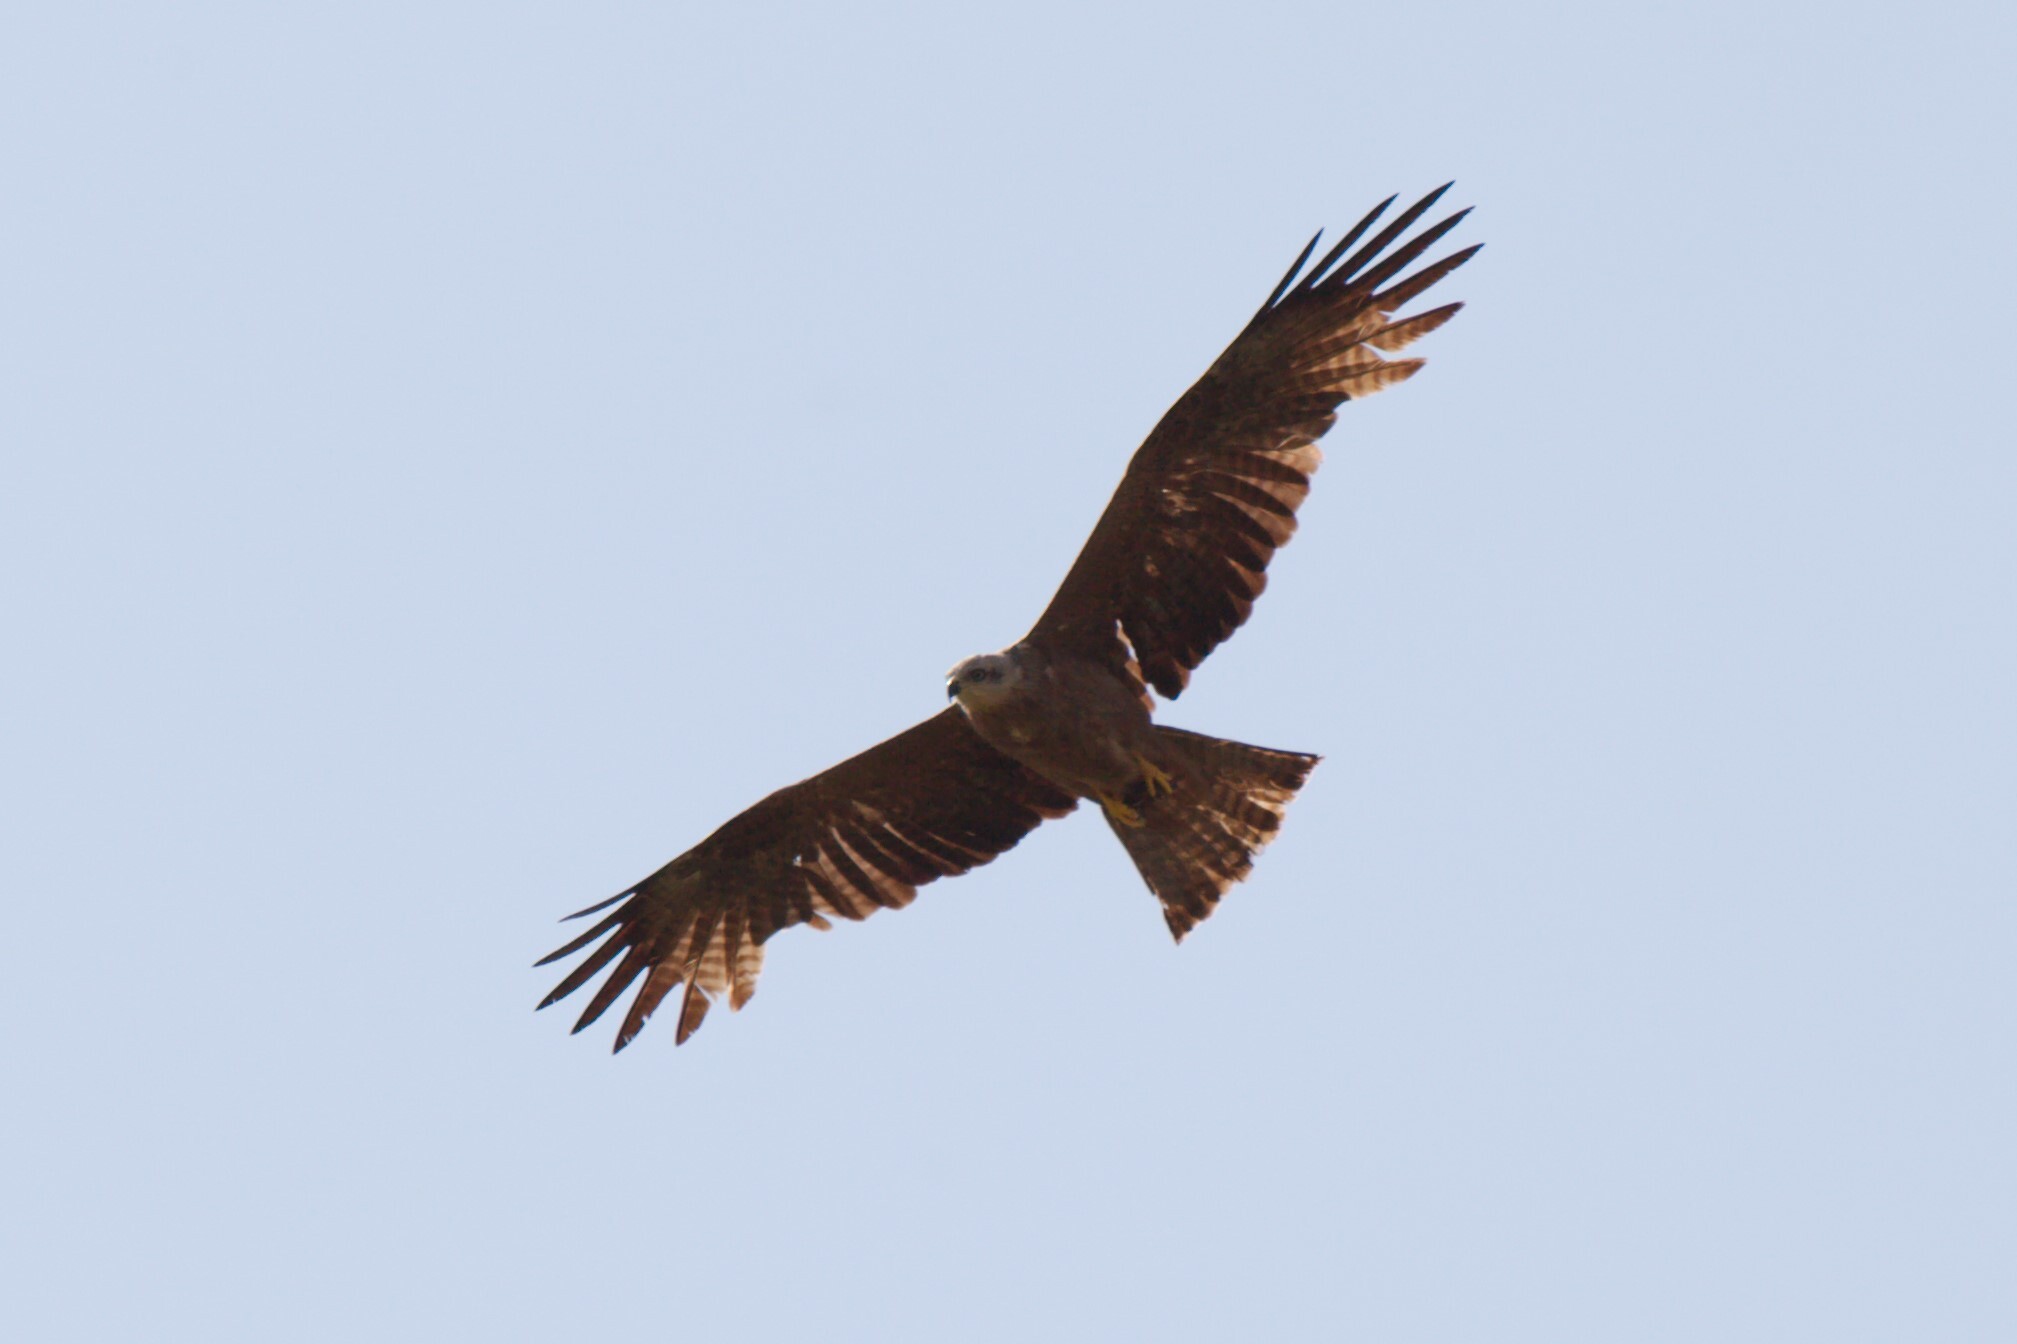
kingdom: Animalia
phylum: Chordata
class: Aves
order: Accipitriformes
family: Accipitridae
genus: Milvus
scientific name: Milvus migrans
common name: Black kite
